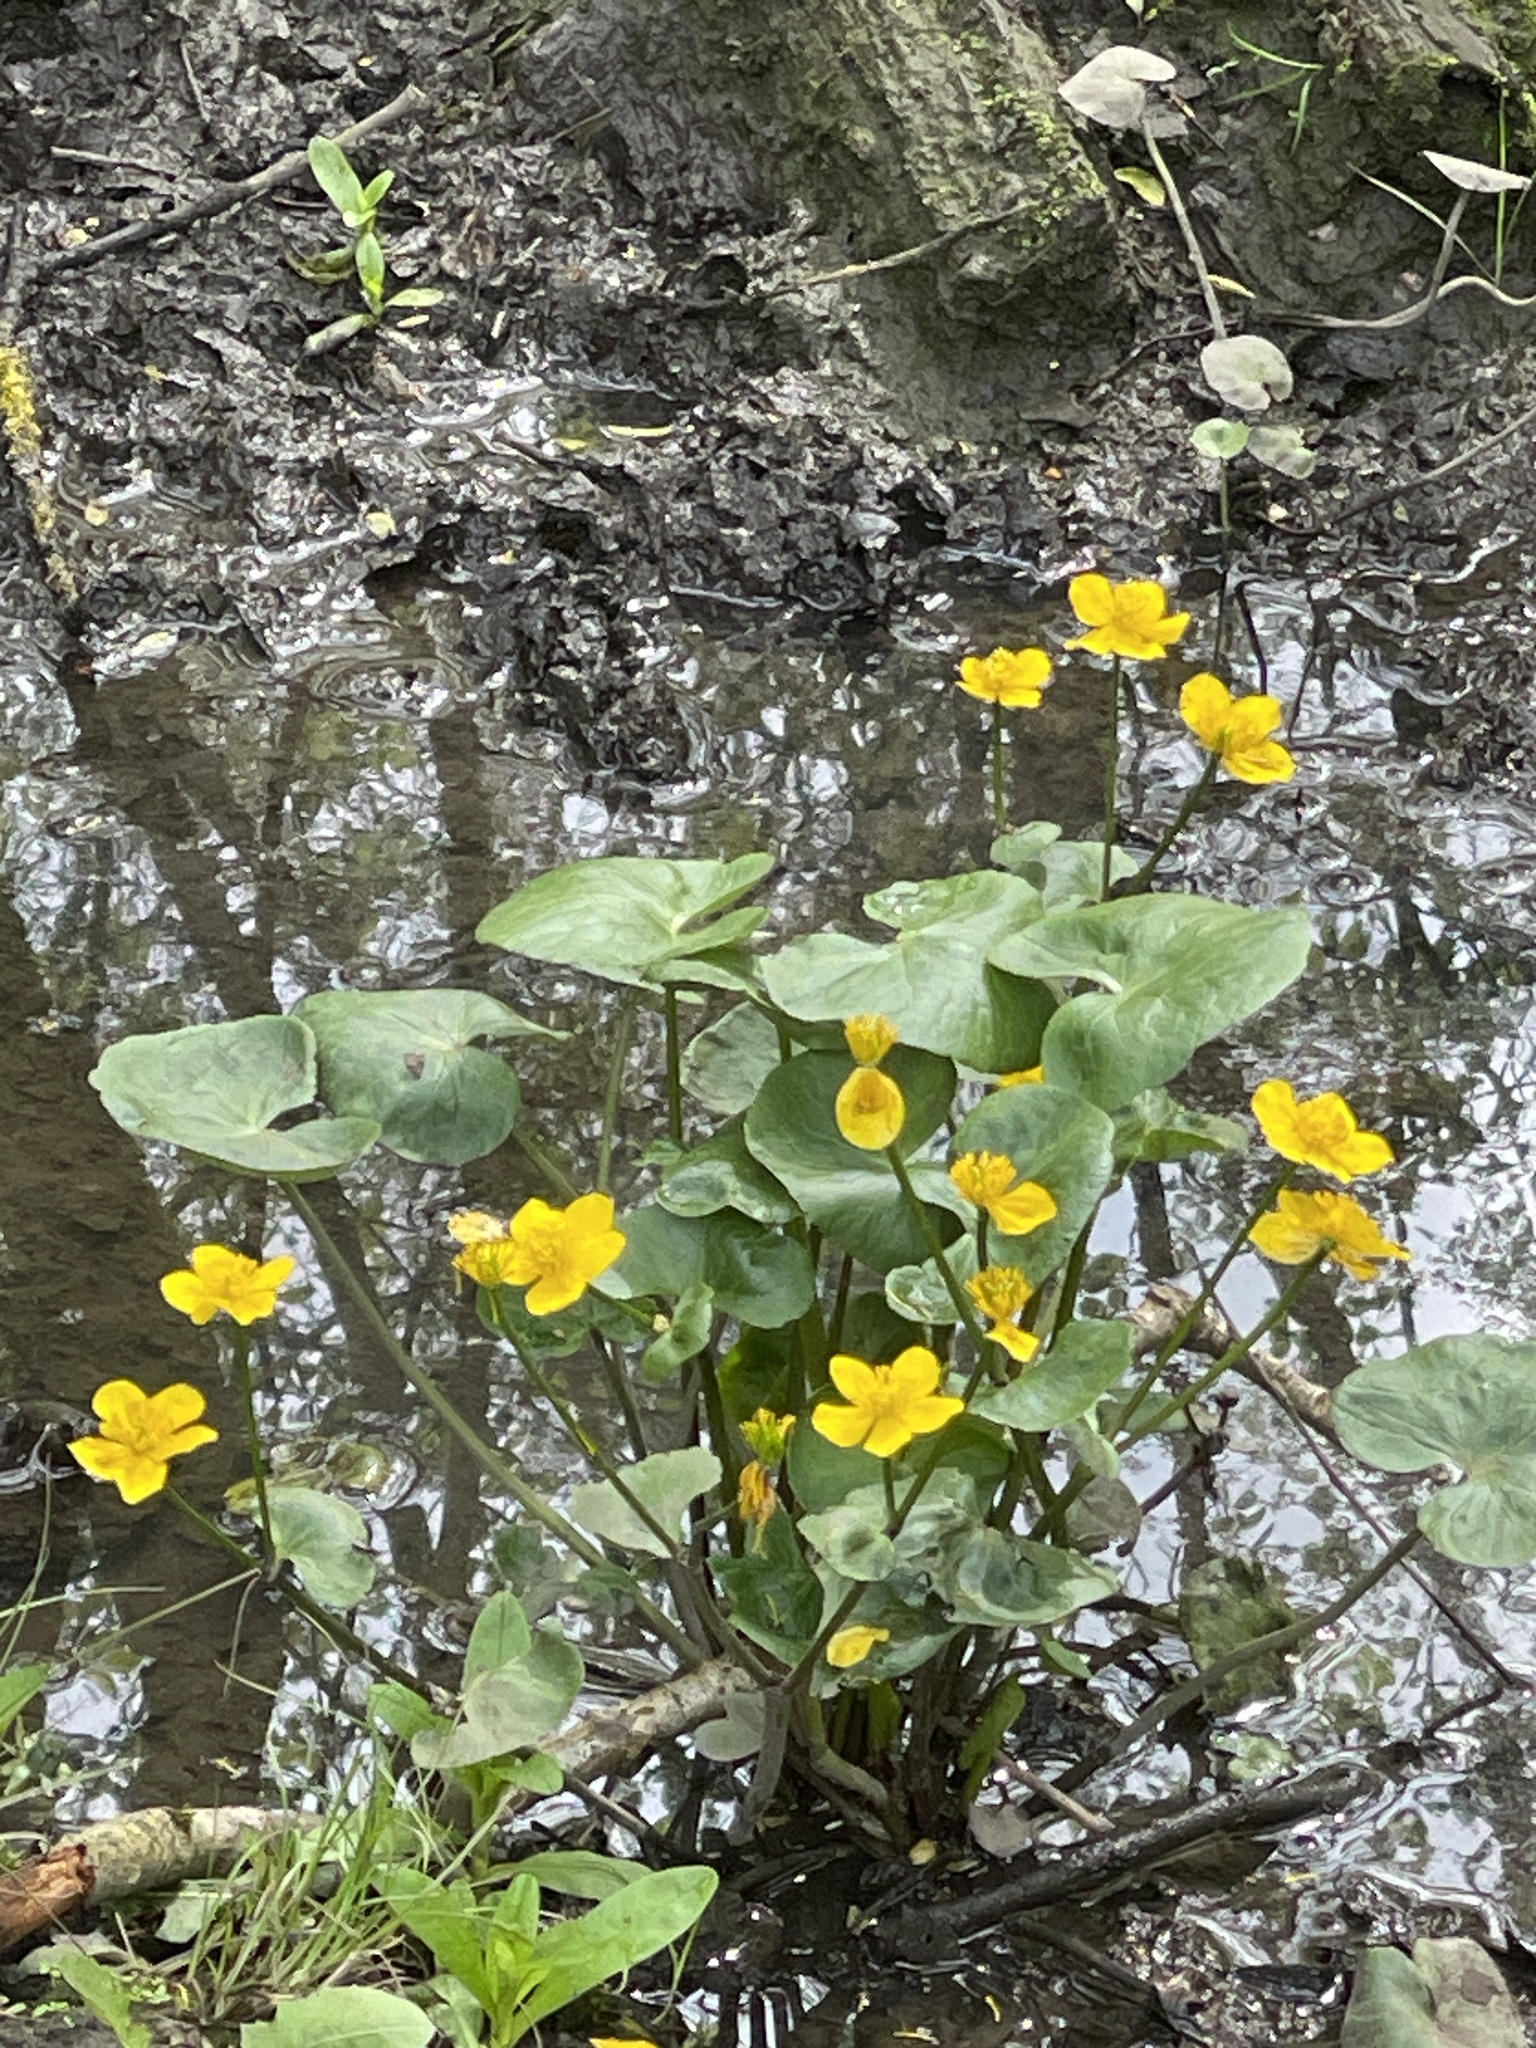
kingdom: Plantae
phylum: Tracheophyta
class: Magnoliopsida
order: Ranunculales
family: Ranunculaceae
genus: Caltha
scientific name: Caltha palustris
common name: Marsh marigold
